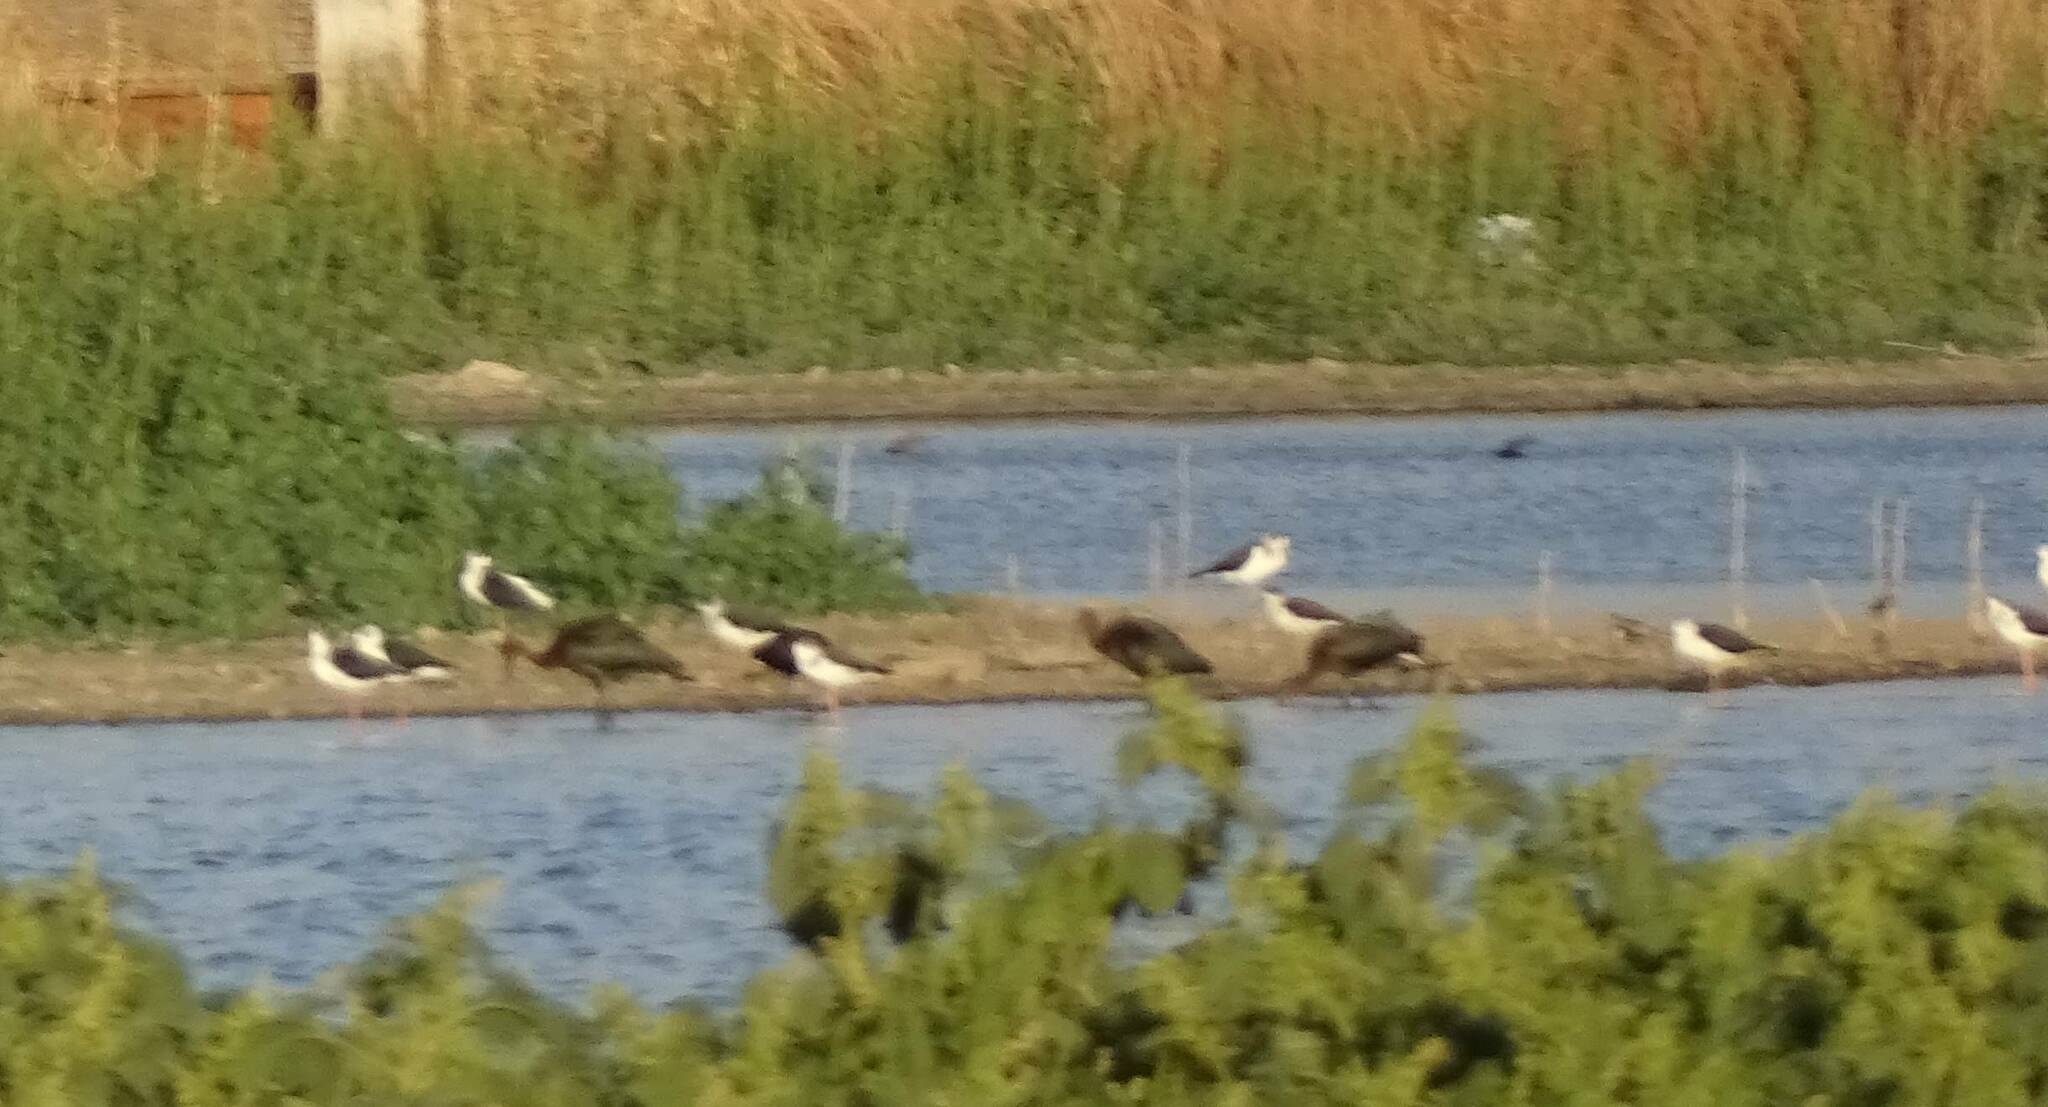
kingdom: Animalia
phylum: Chordata
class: Aves
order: Charadriiformes
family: Recurvirostridae
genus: Himantopus
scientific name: Himantopus himantopus
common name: Black-winged stilt
